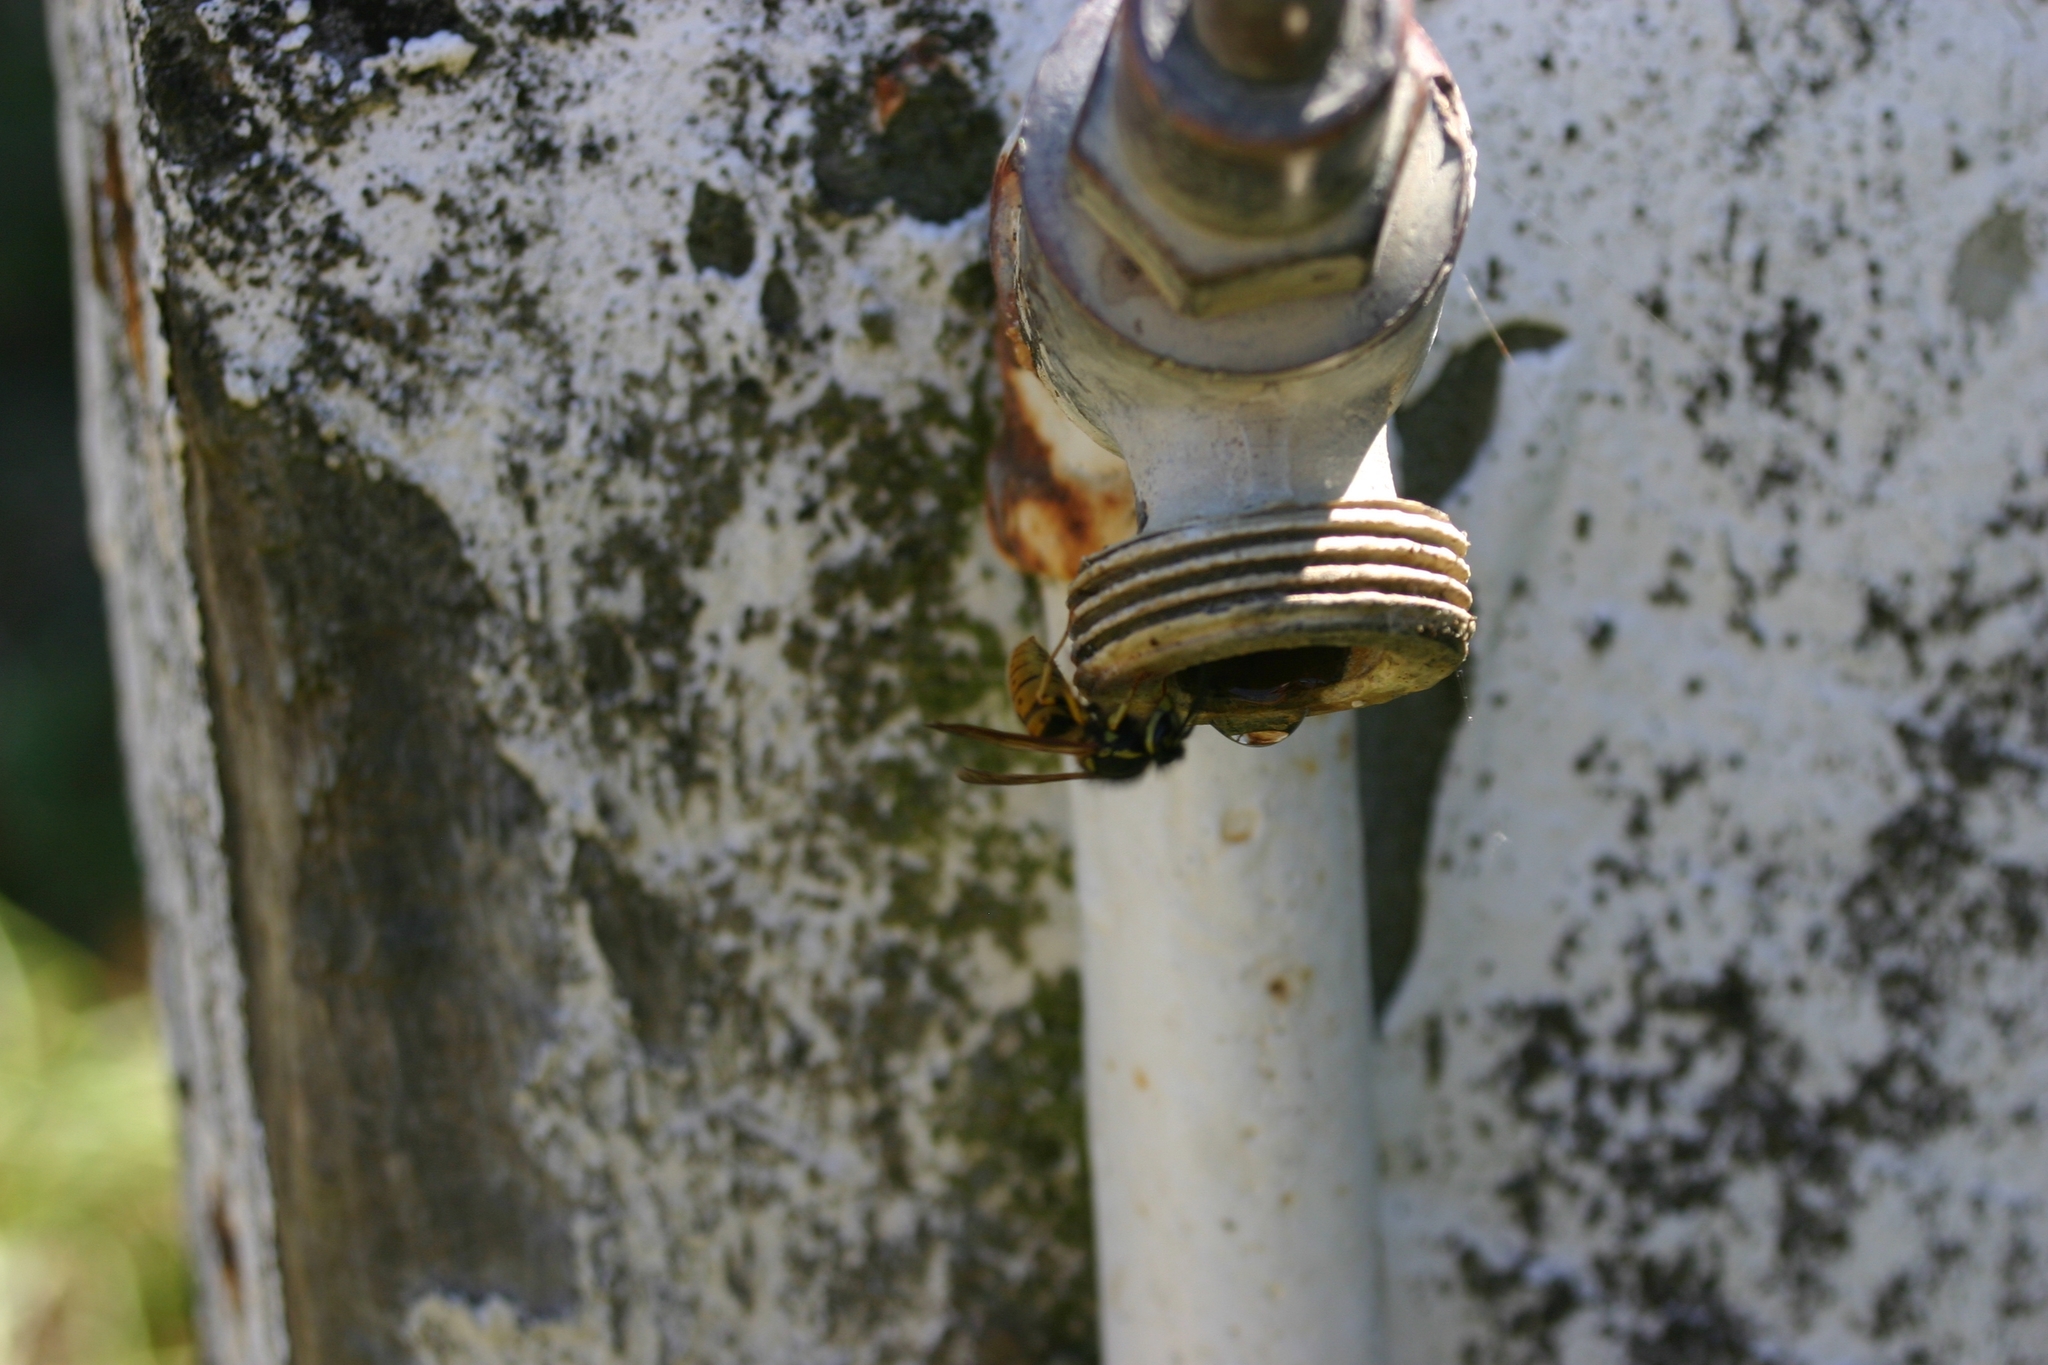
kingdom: Animalia
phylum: Arthropoda
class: Insecta
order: Hymenoptera
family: Vespidae
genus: Vespula
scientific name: Vespula germanica
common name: German wasp
